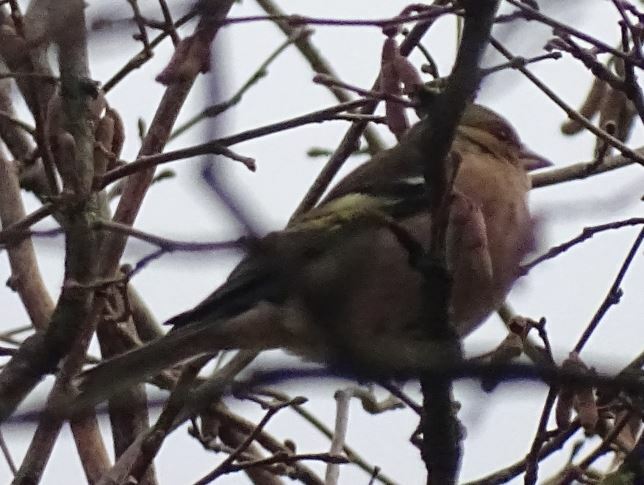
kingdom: Animalia
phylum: Chordata
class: Aves
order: Passeriformes
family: Fringillidae
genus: Fringilla
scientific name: Fringilla coelebs
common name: Common chaffinch
